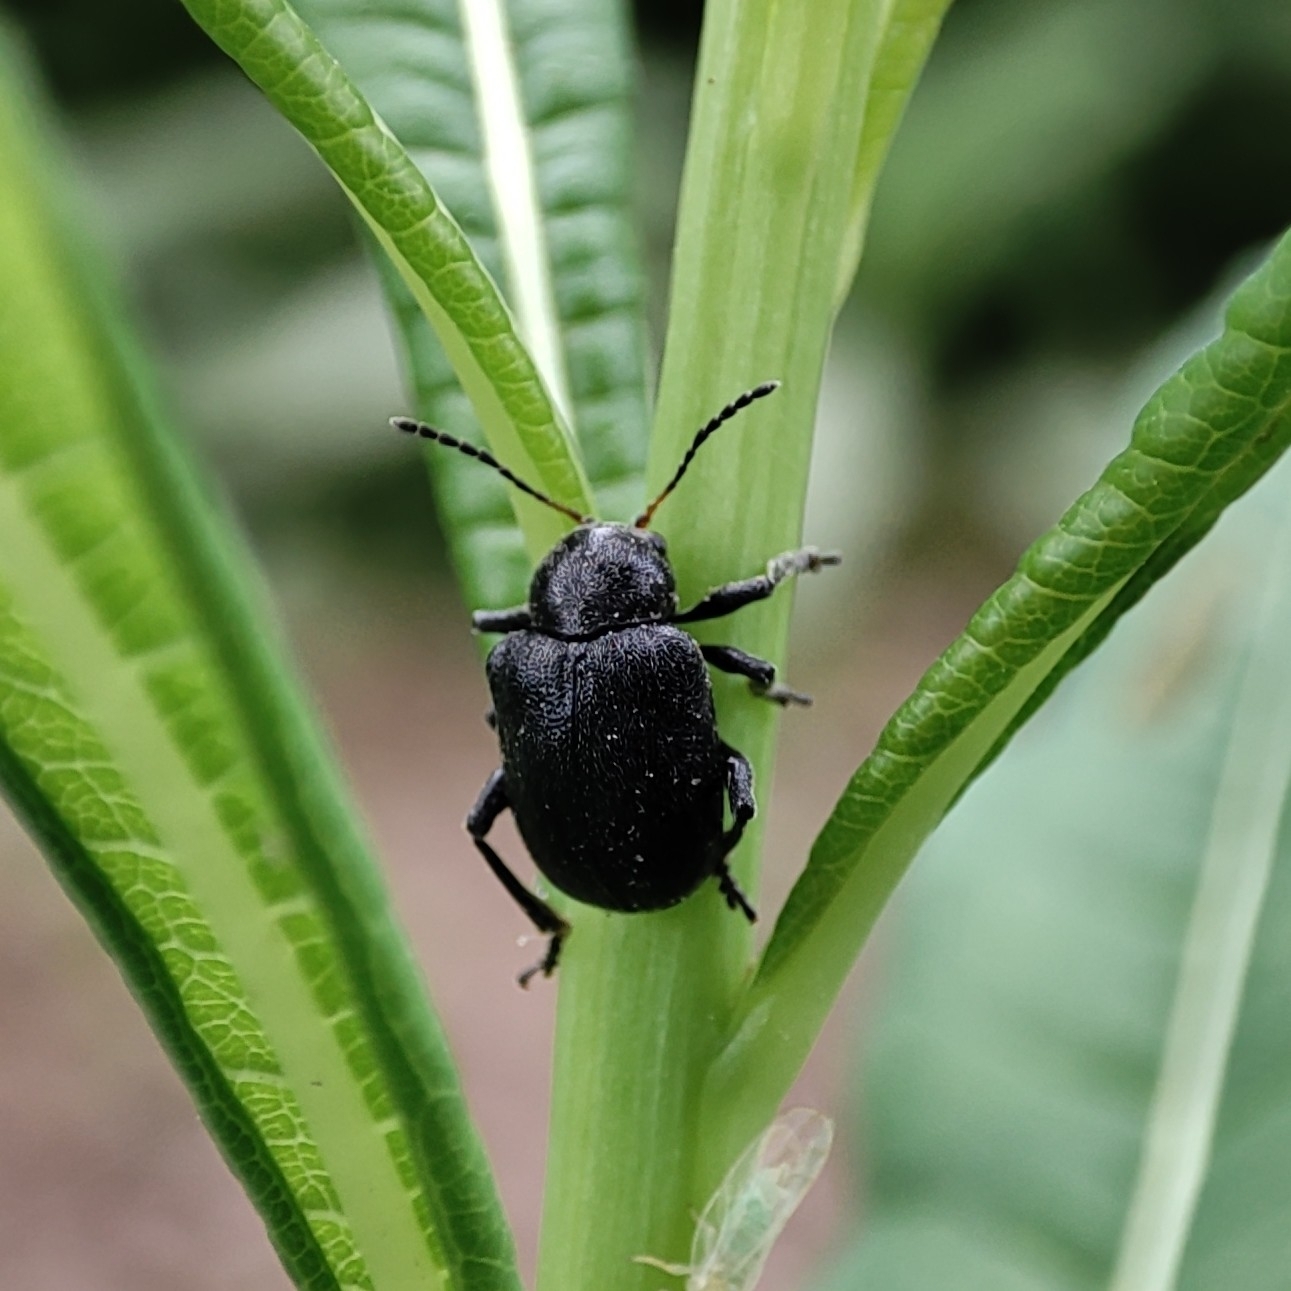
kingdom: Animalia
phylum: Arthropoda
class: Insecta
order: Coleoptera
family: Chrysomelidae
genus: Bromius
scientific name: Bromius obscurus
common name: Western grape rootworm
